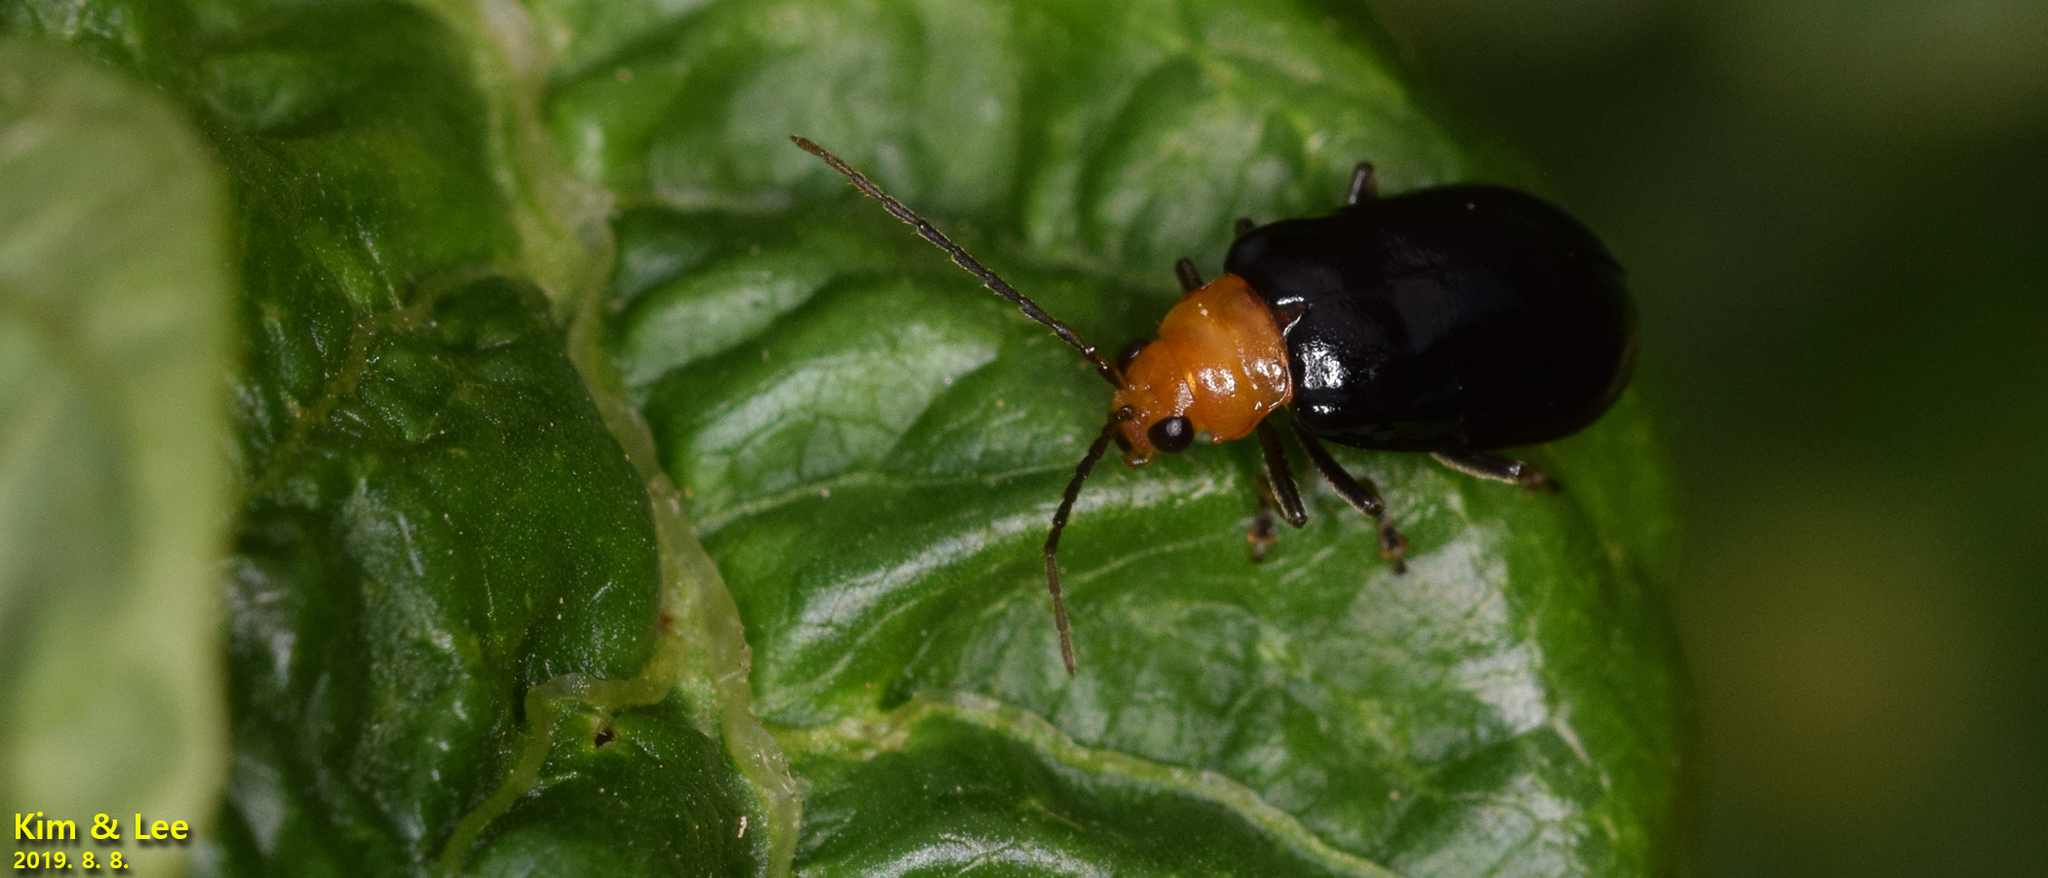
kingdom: Animalia
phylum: Arthropoda
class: Insecta
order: Coleoptera
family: Chrysomelidae
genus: Aulacophora
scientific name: Aulacophora nigripennis
